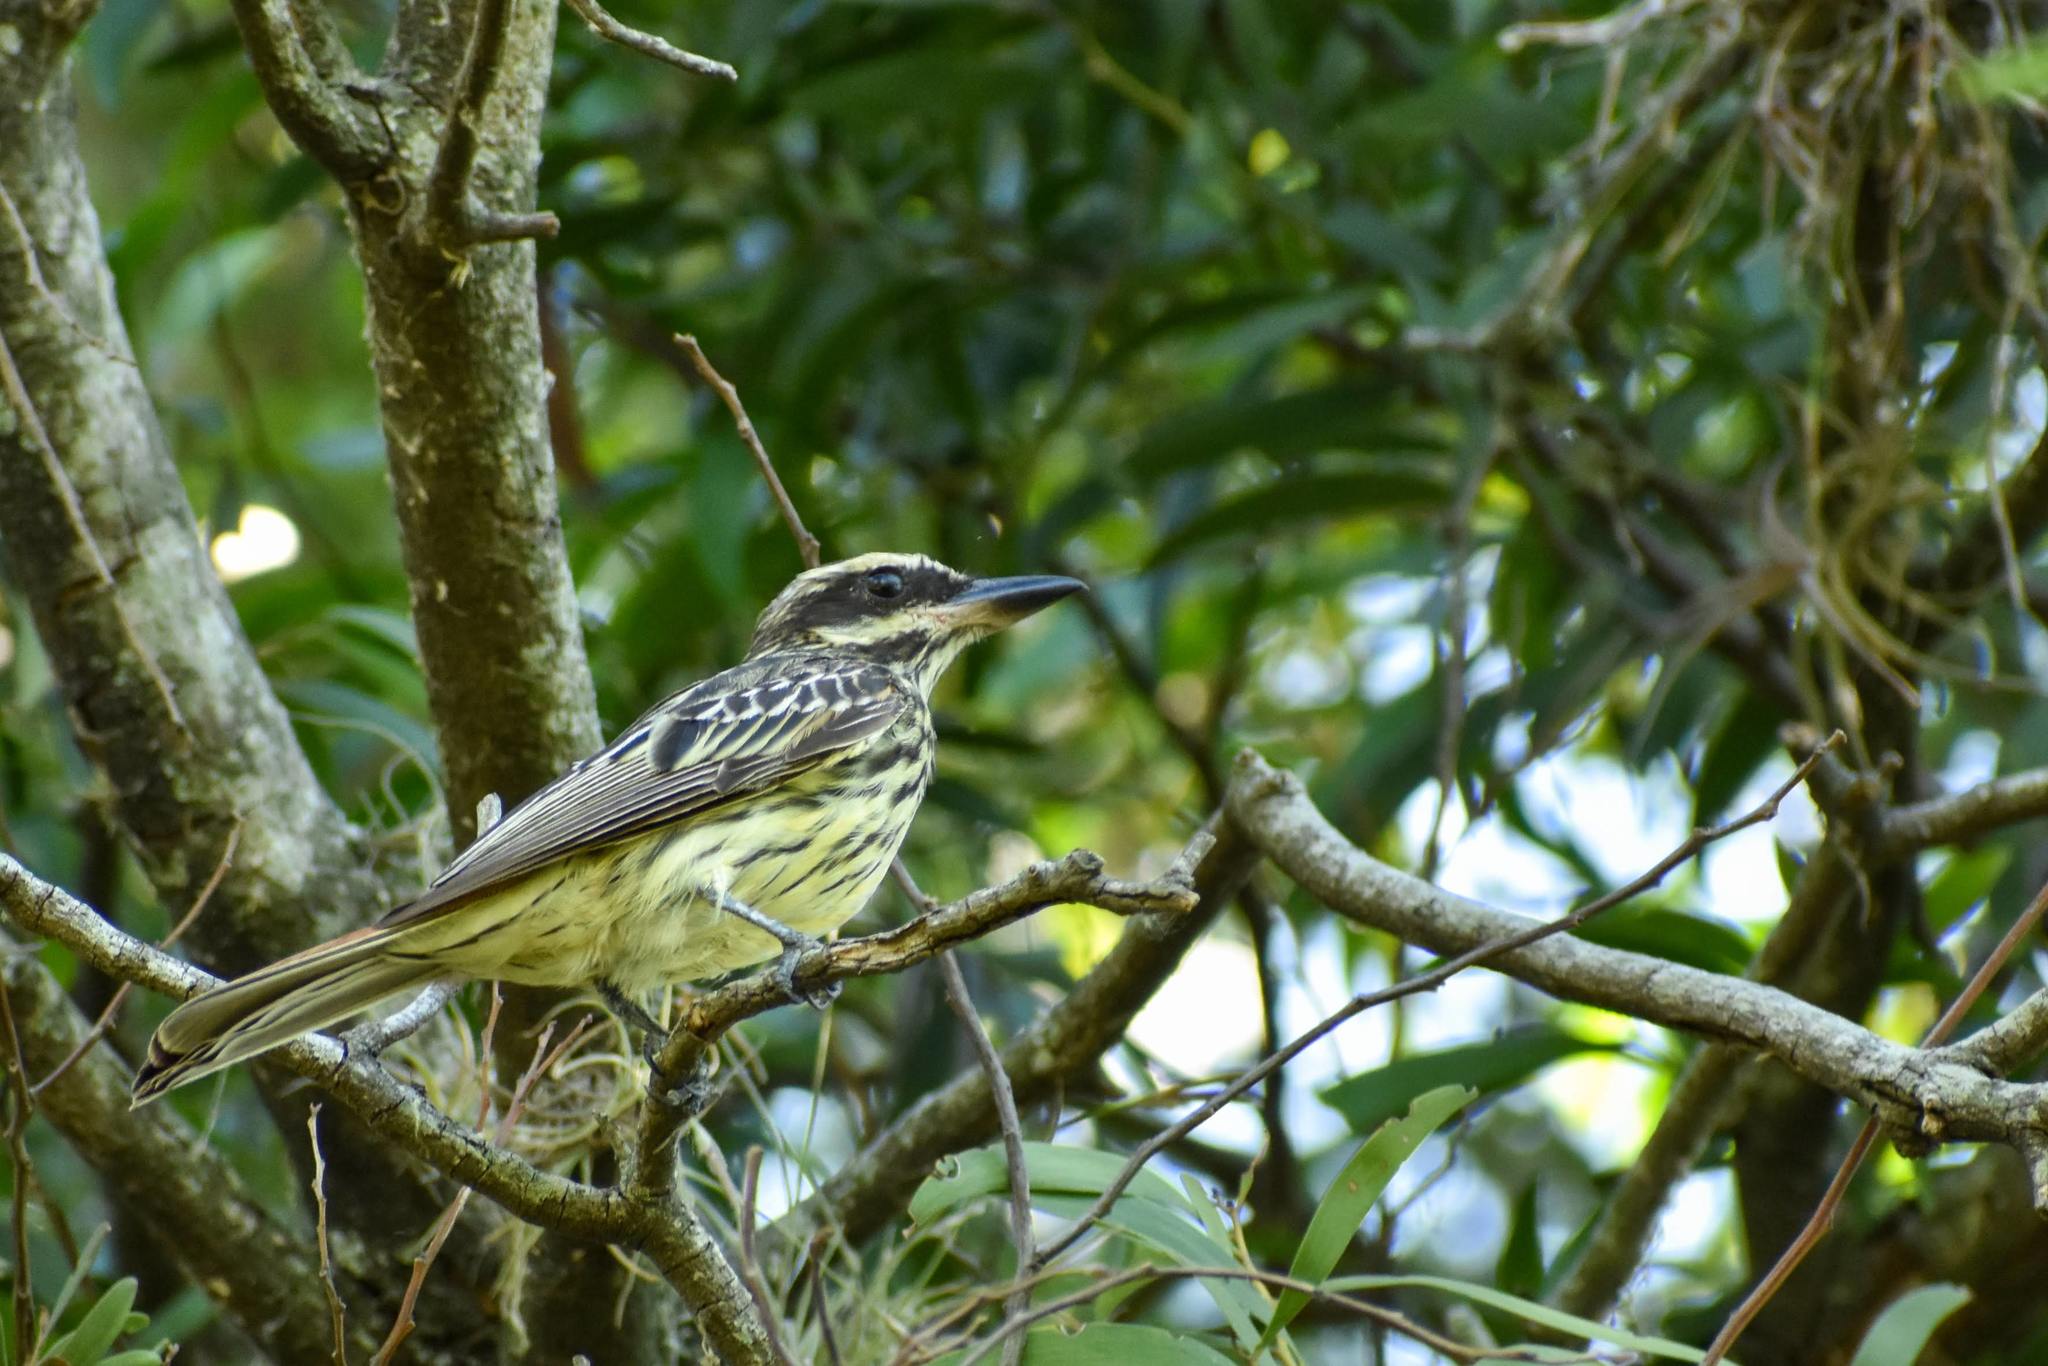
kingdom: Animalia
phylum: Chordata
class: Aves
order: Passeriformes
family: Tyrannidae
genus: Myiodynastes
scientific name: Myiodynastes maculatus
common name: Streaked flycatcher
